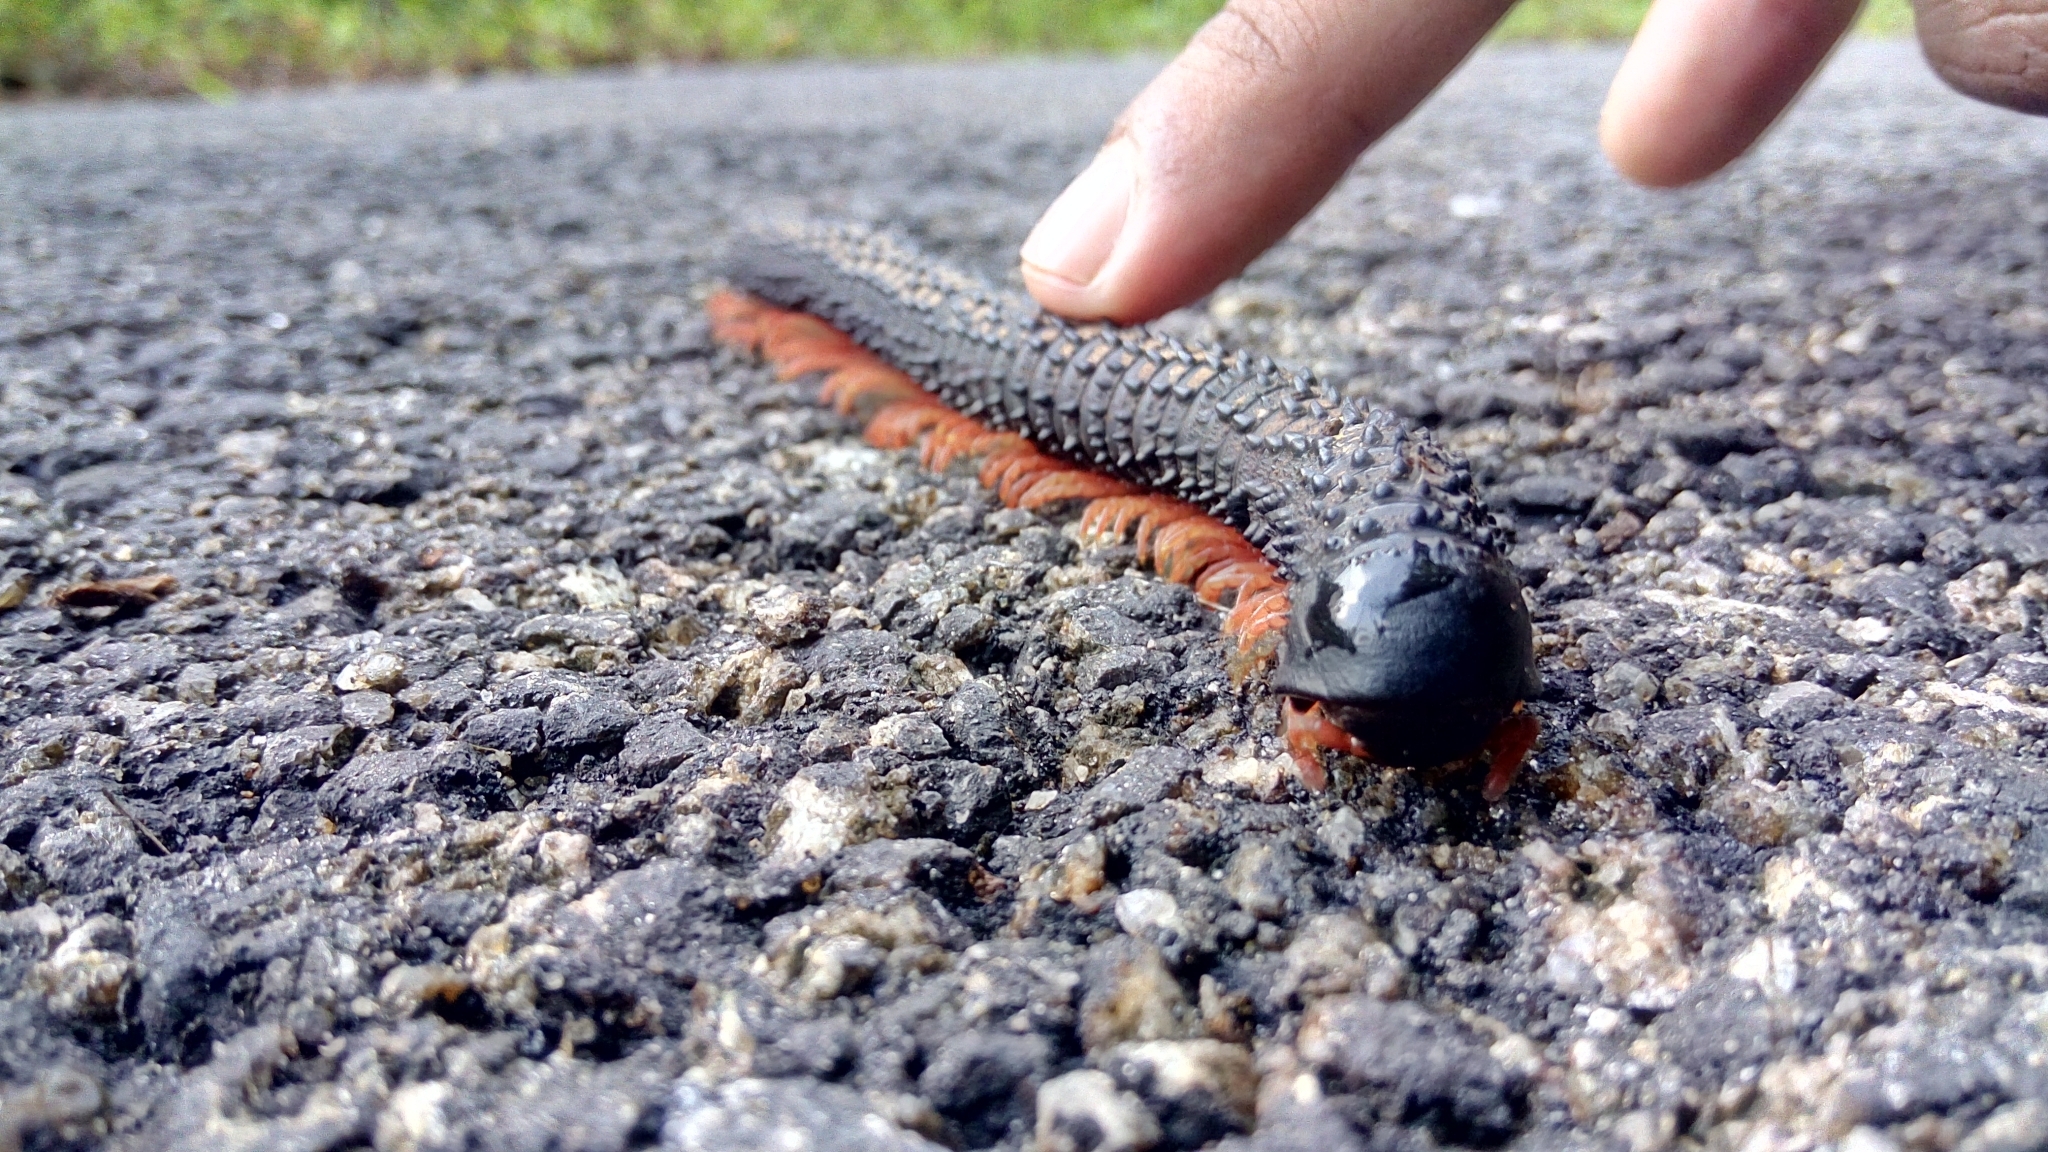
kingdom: Animalia
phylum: Arthropoda
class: Diplopoda
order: Spirobolida
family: Pachybolidae
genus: Eucentrobolus
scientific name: Eucentrobolus tamulus
